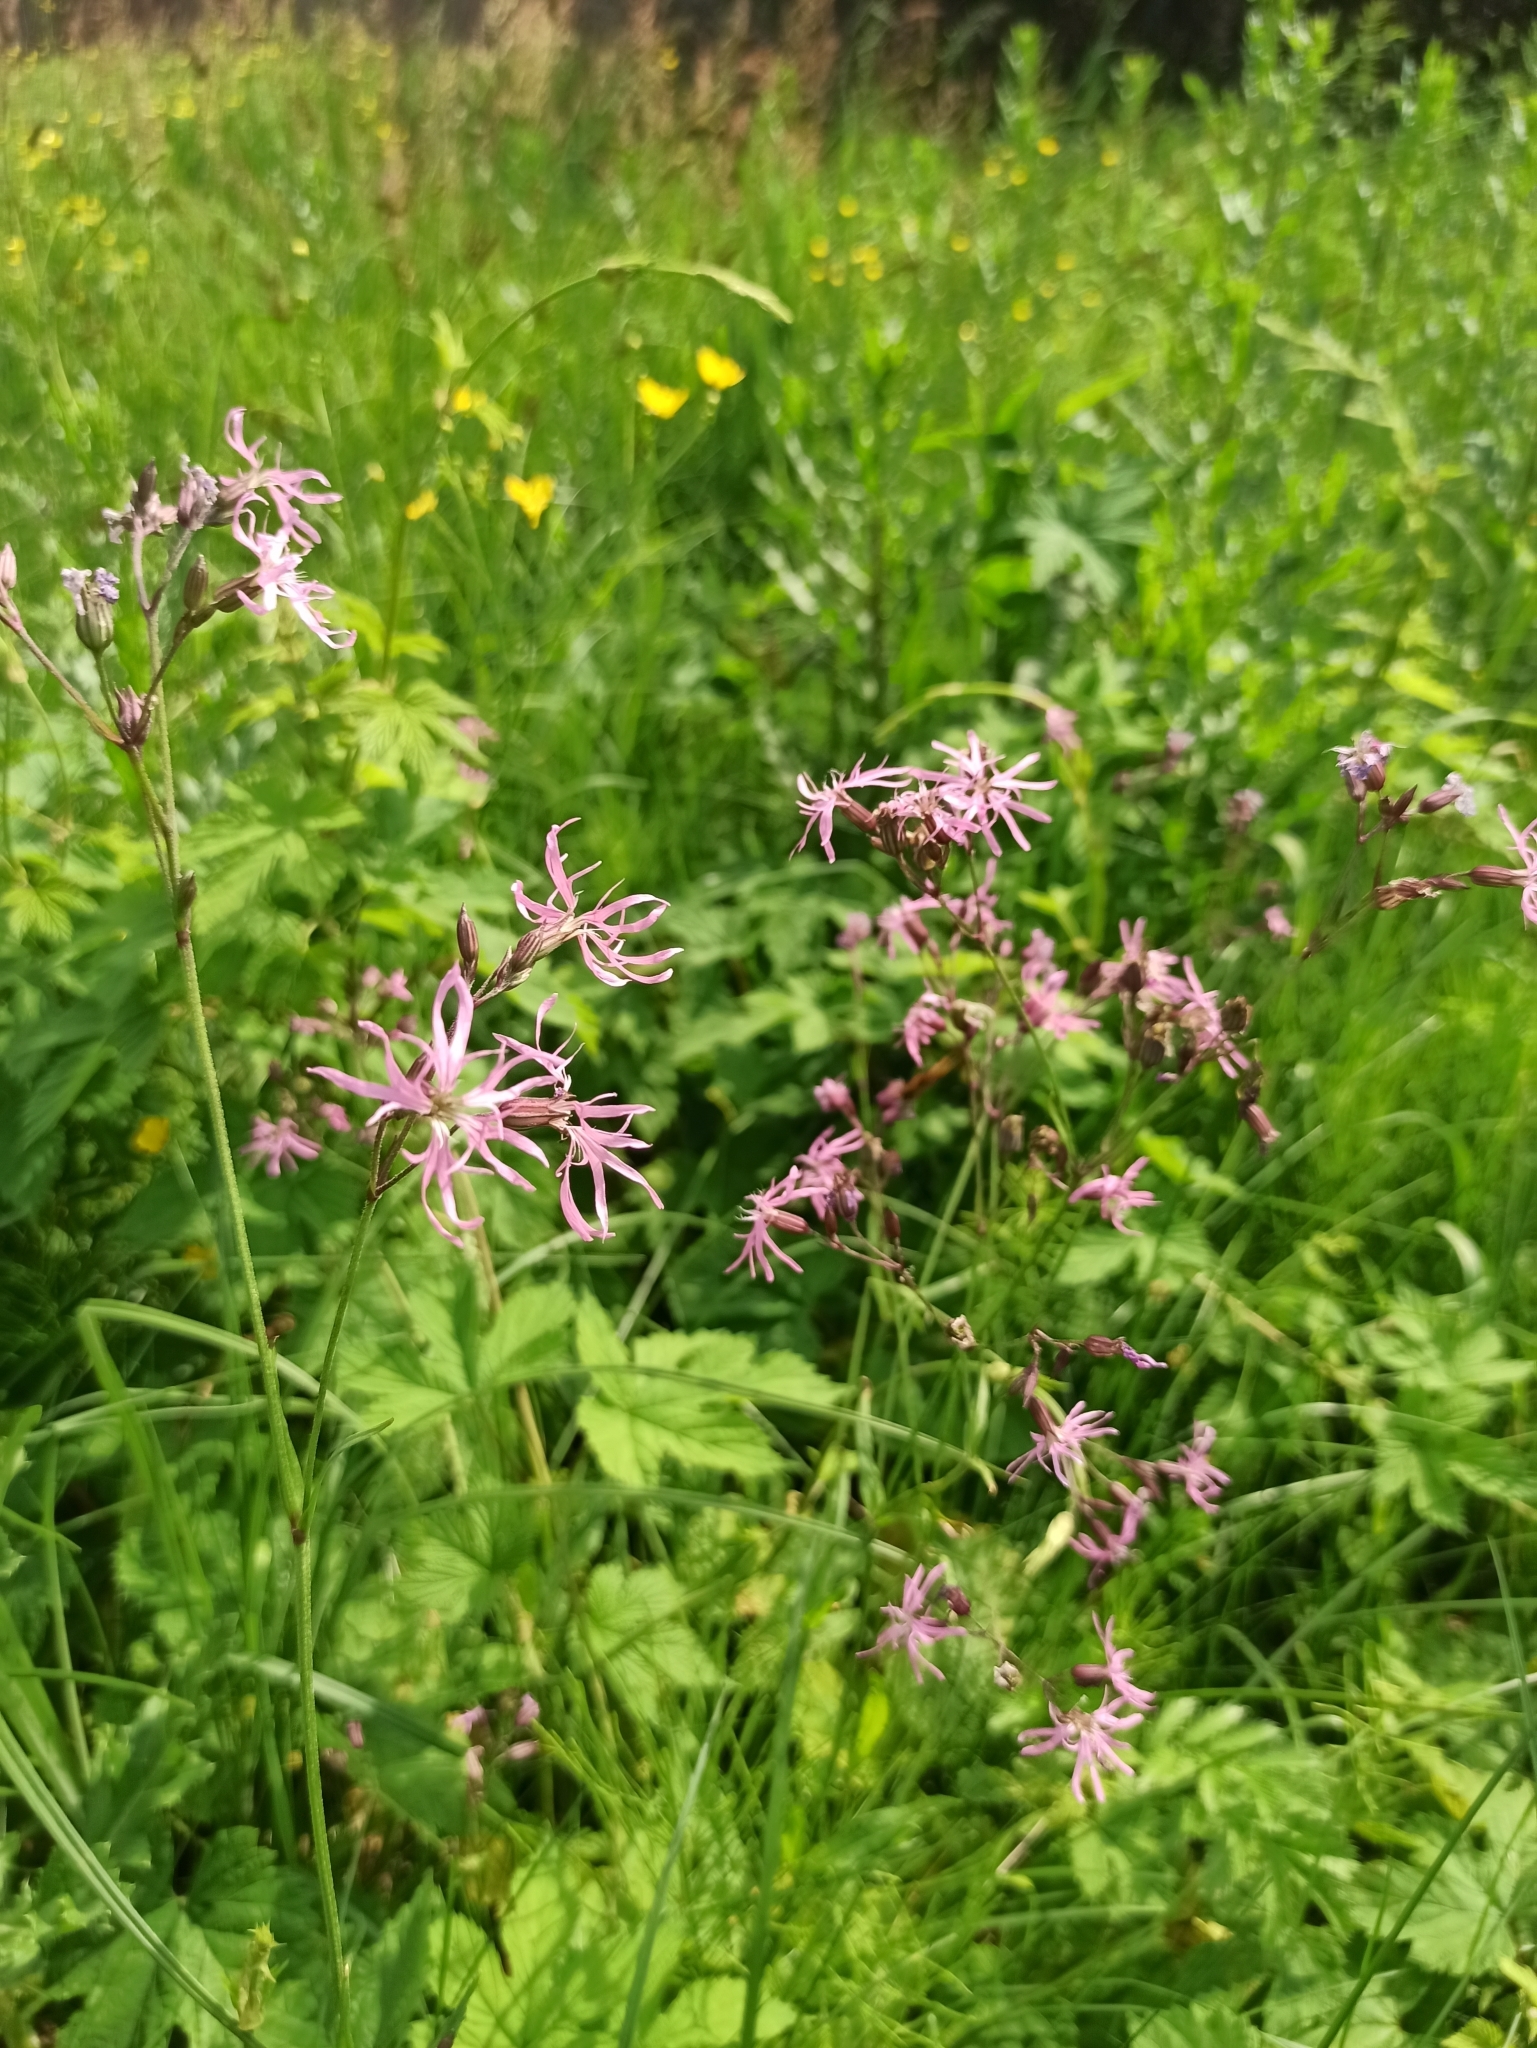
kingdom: Plantae
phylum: Tracheophyta
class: Magnoliopsida
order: Caryophyllales
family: Caryophyllaceae
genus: Silene
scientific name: Silene flos-cuculi
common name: Ragged-robin
